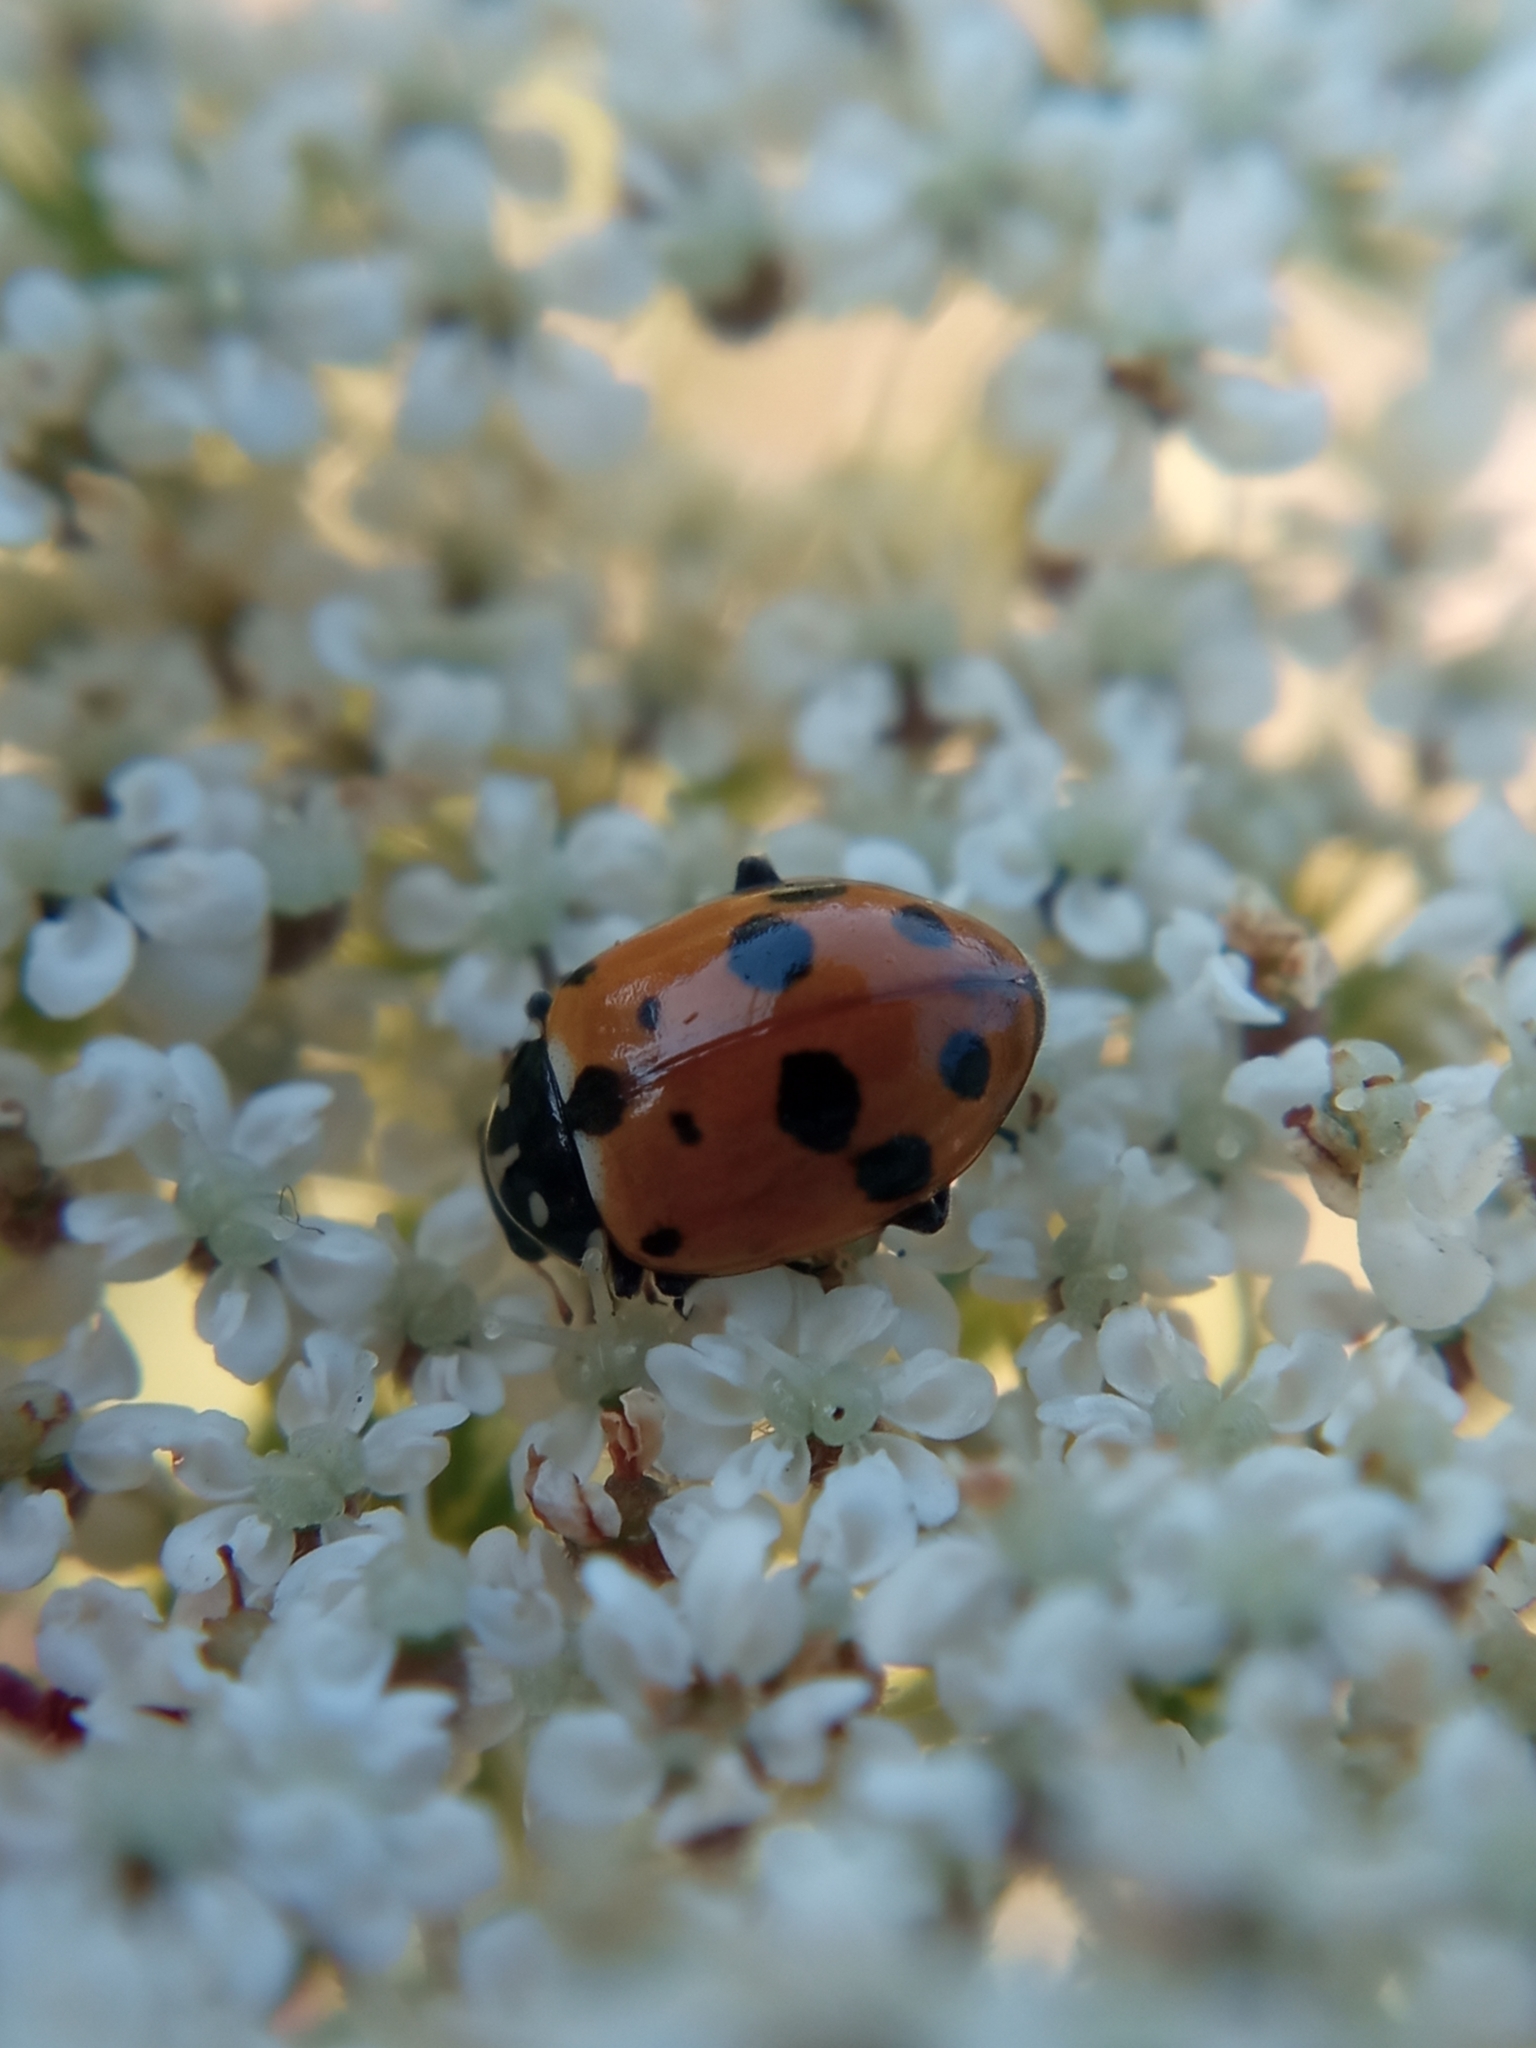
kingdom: Animalia
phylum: Arthropoda
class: Insecta
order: Coleoptera
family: Coccinellidae
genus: Hippodamia
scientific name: Hippodamia variegata
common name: Ladybird beetle
